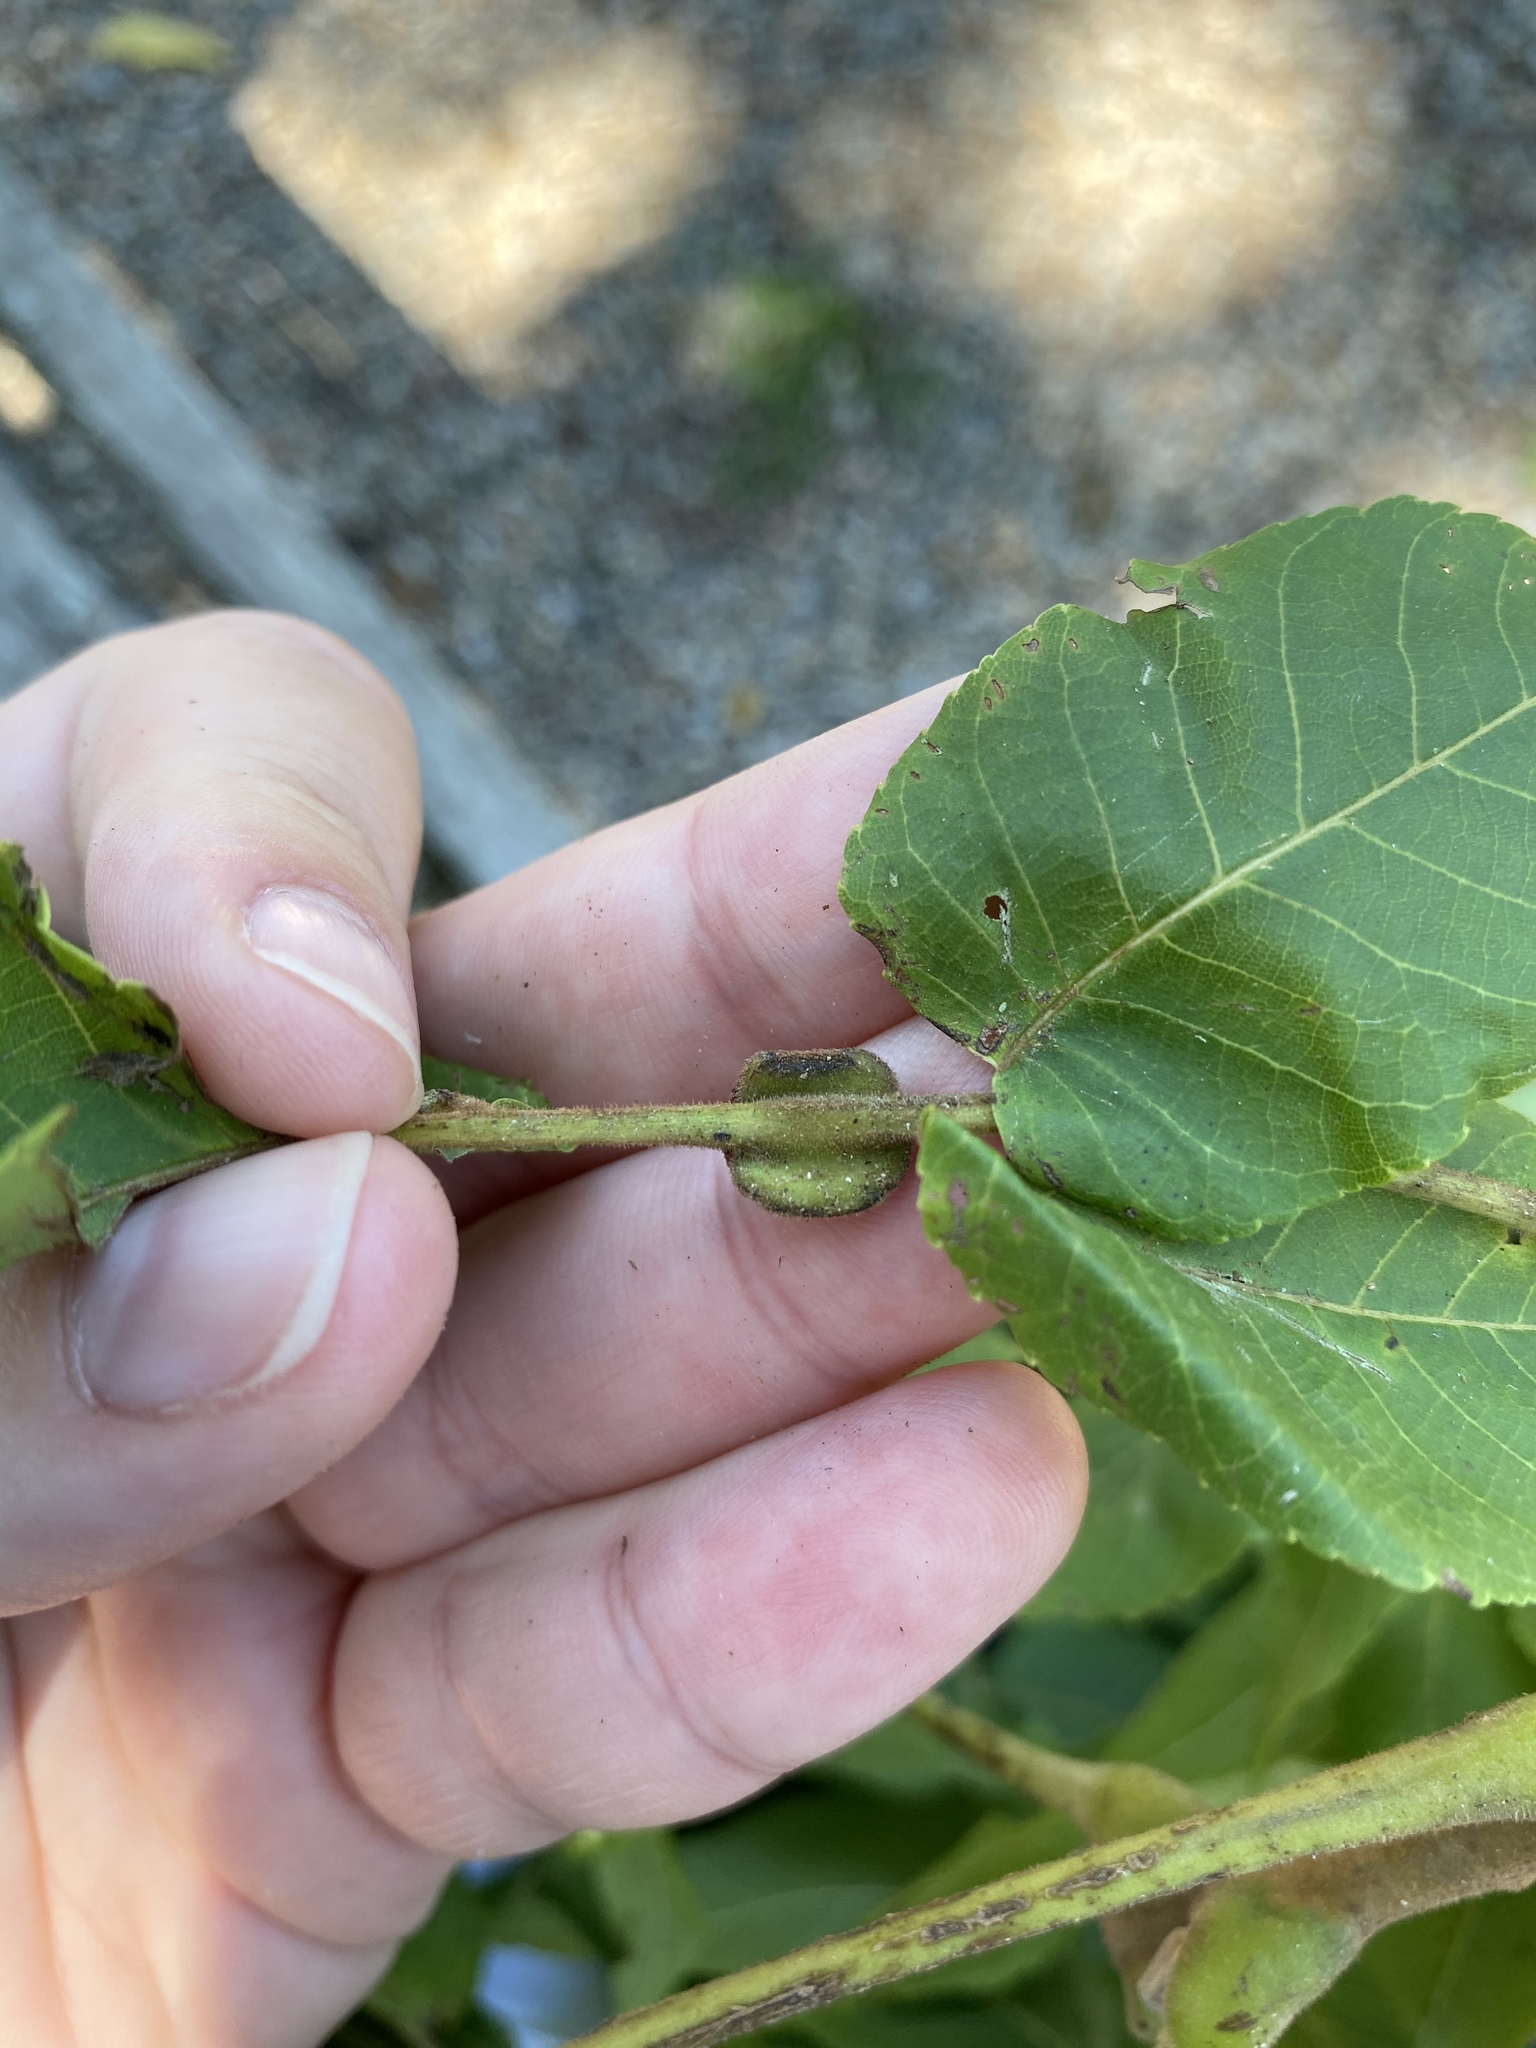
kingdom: Animalia
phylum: Arthropoda
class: Arachnida
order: Trombidiformes
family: Eriophyidae
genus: Aceria
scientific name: Aceria
